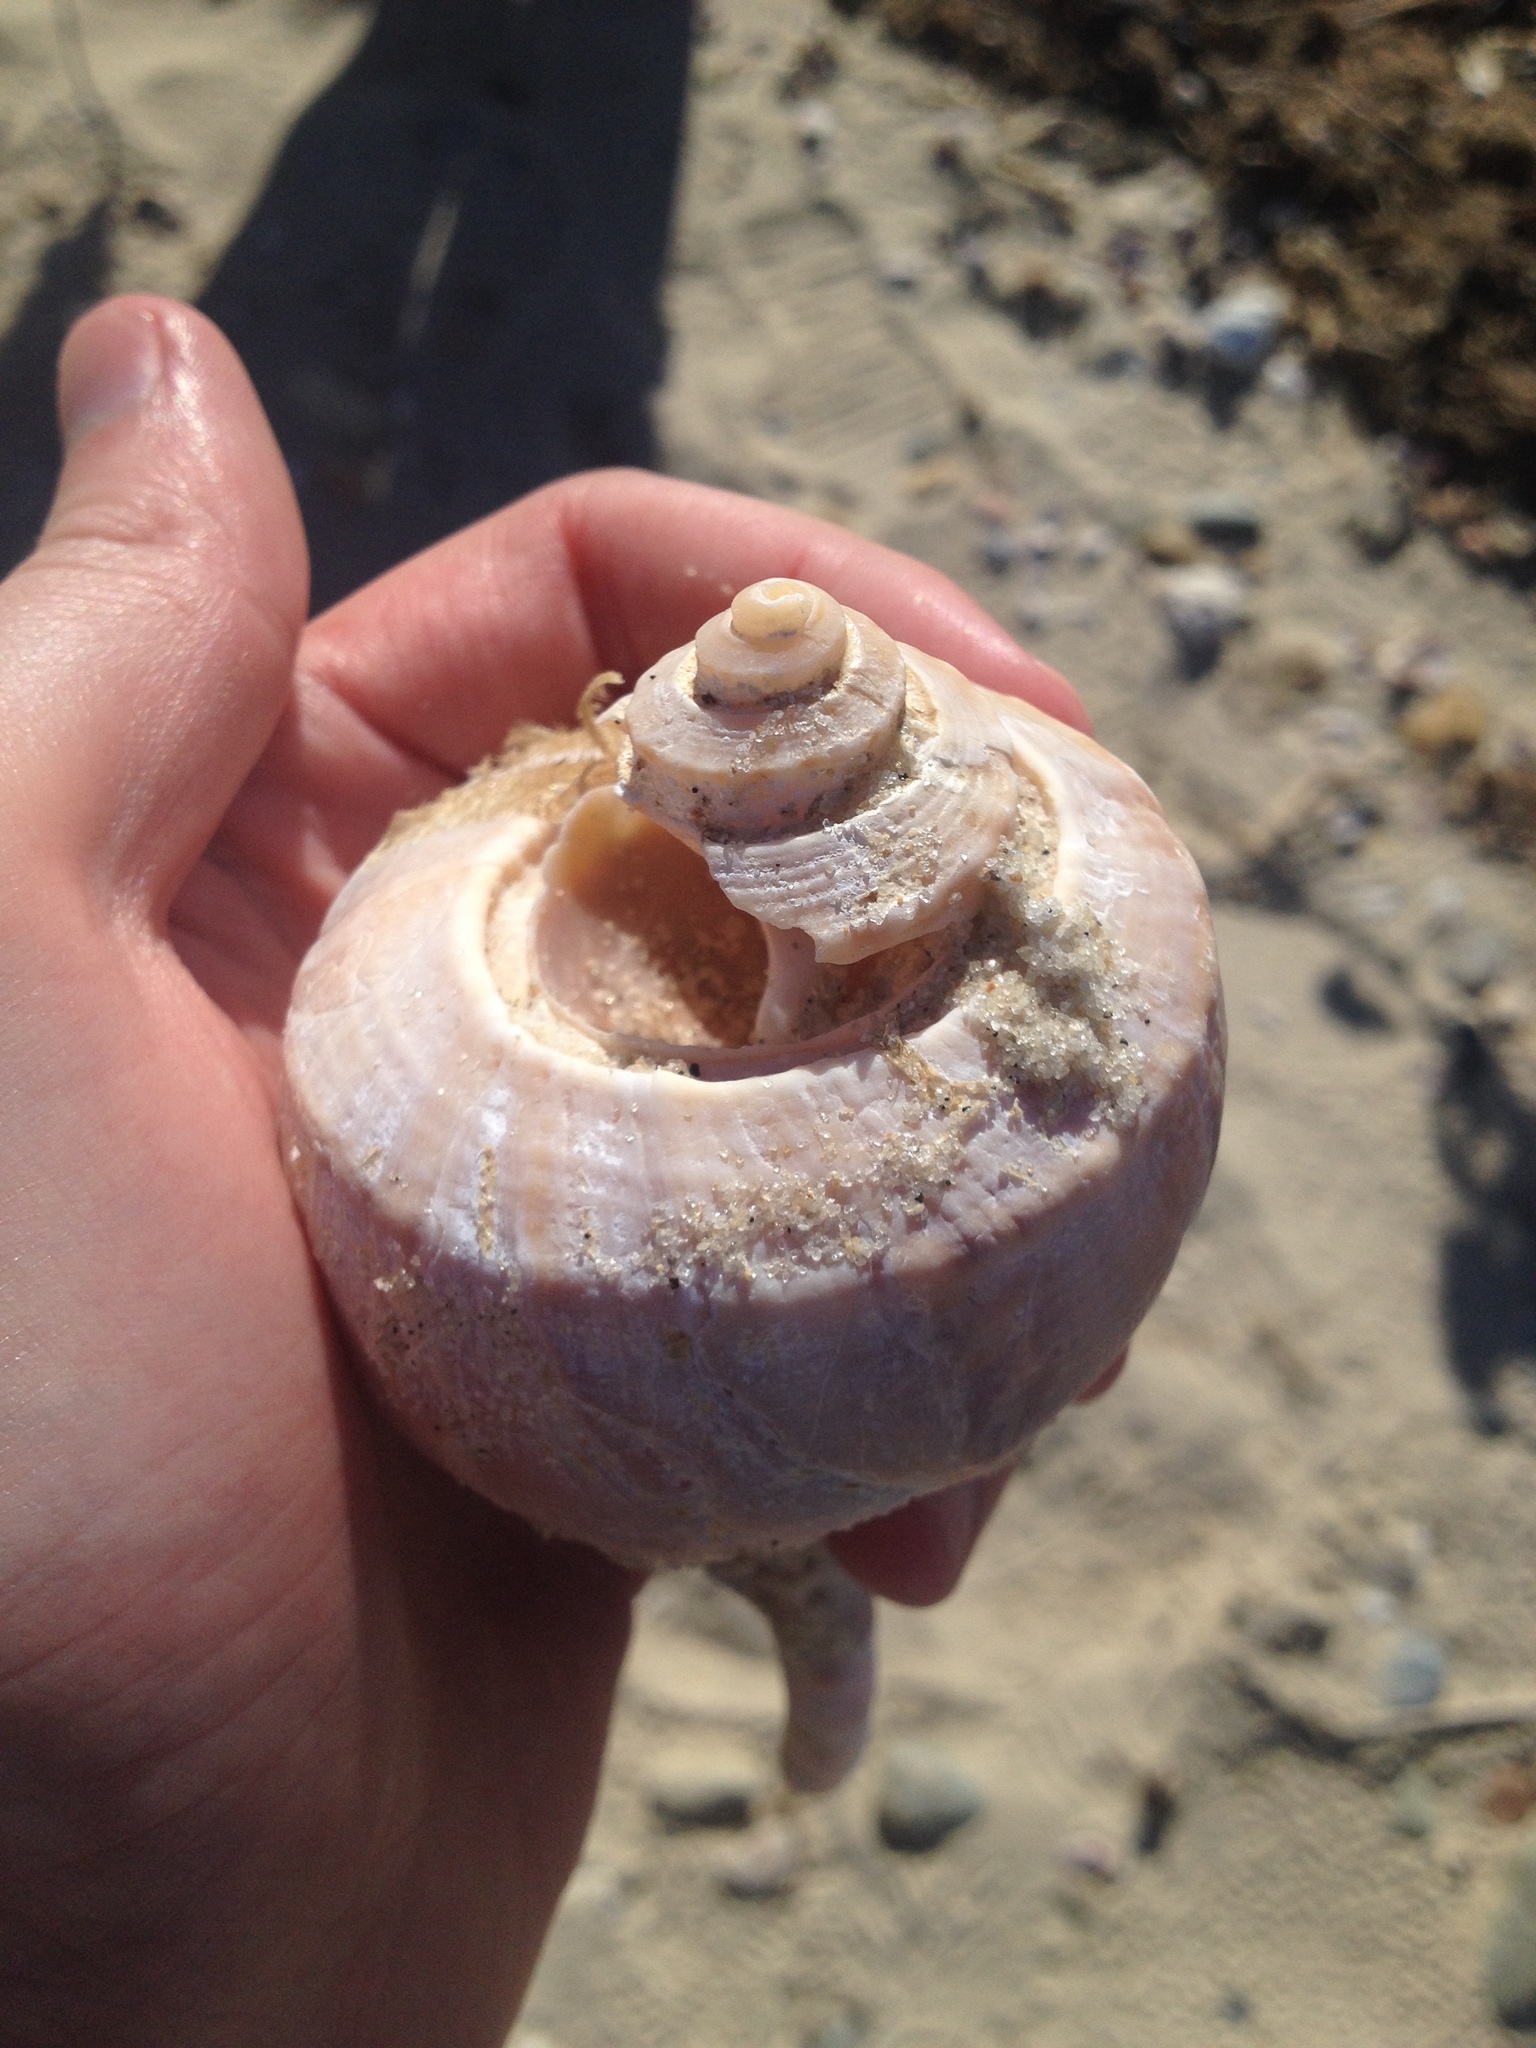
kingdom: Animalia
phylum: Mollusca
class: Gastropoda
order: Neogastropoda
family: Busyconidae
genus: Busycotypus
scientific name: Busycotypus canaliculatus
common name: Channeled whelk
